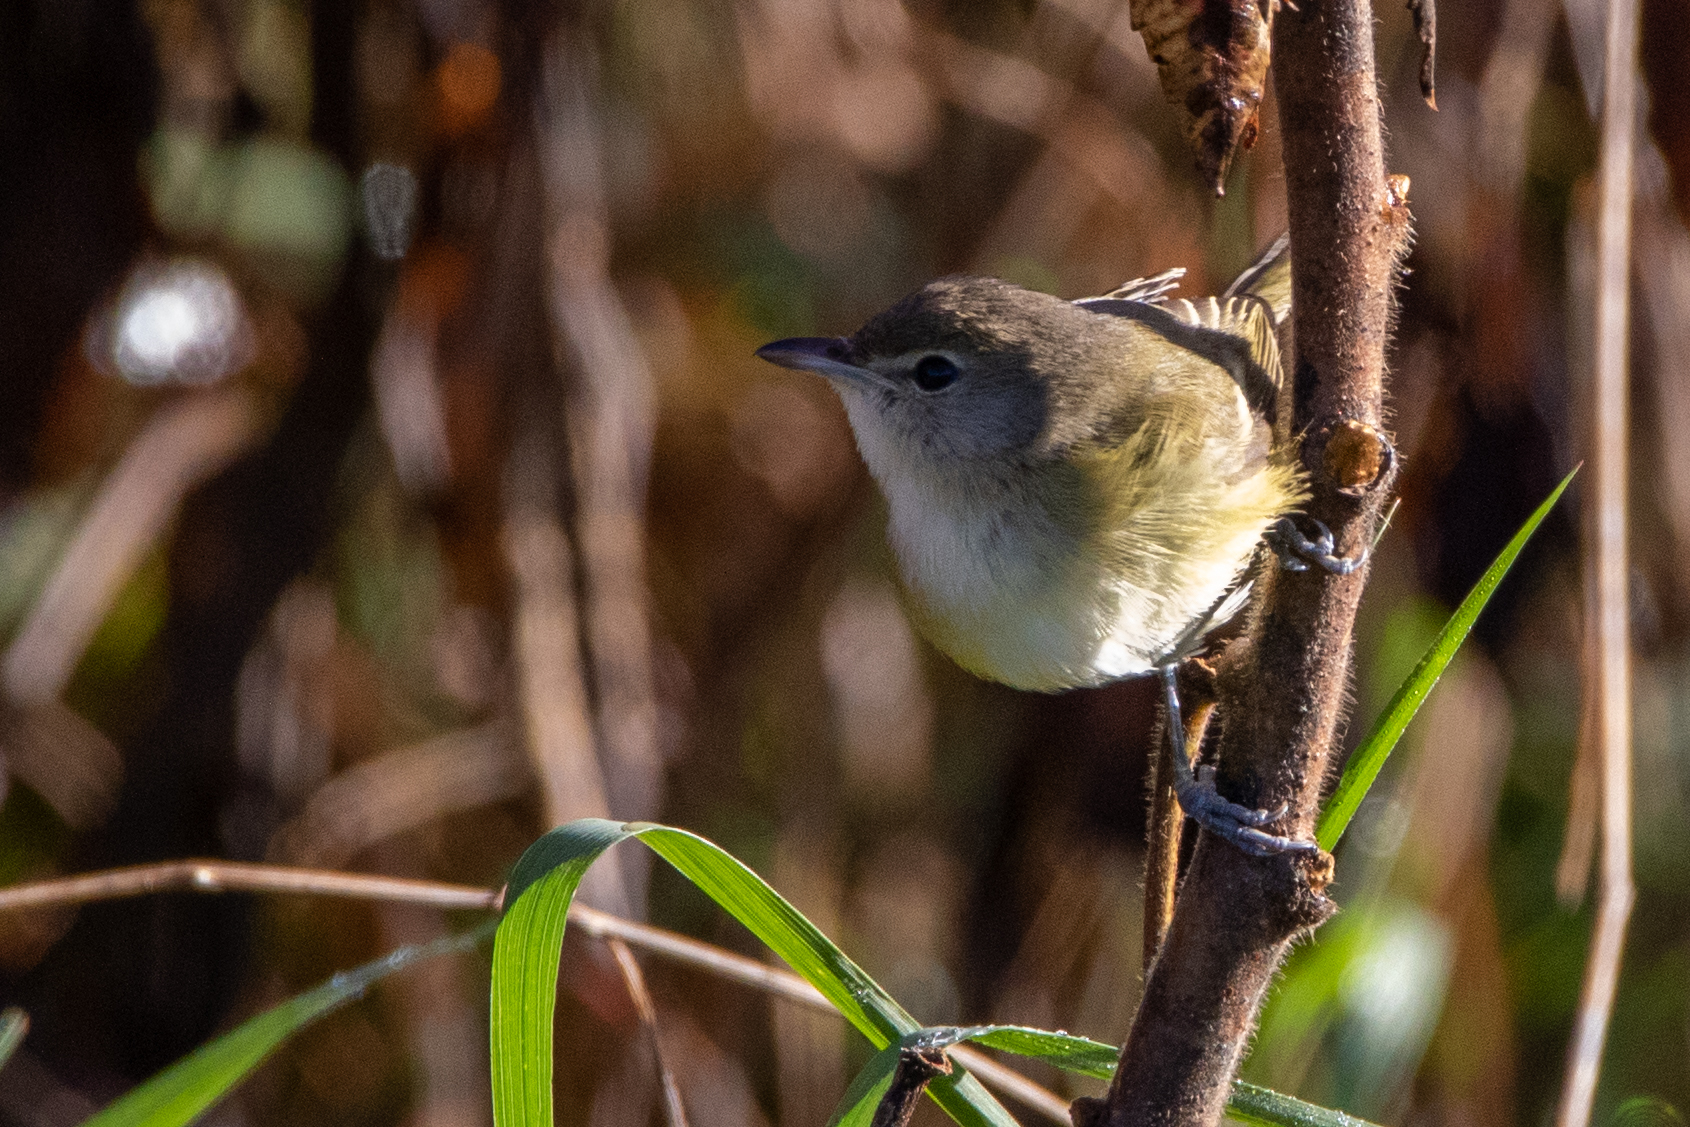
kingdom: Animalia
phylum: Chordata
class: Aves
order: Passeriformes
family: Vireonidae
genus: Vireo
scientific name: Vireo bellii
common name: Bell's vireo
